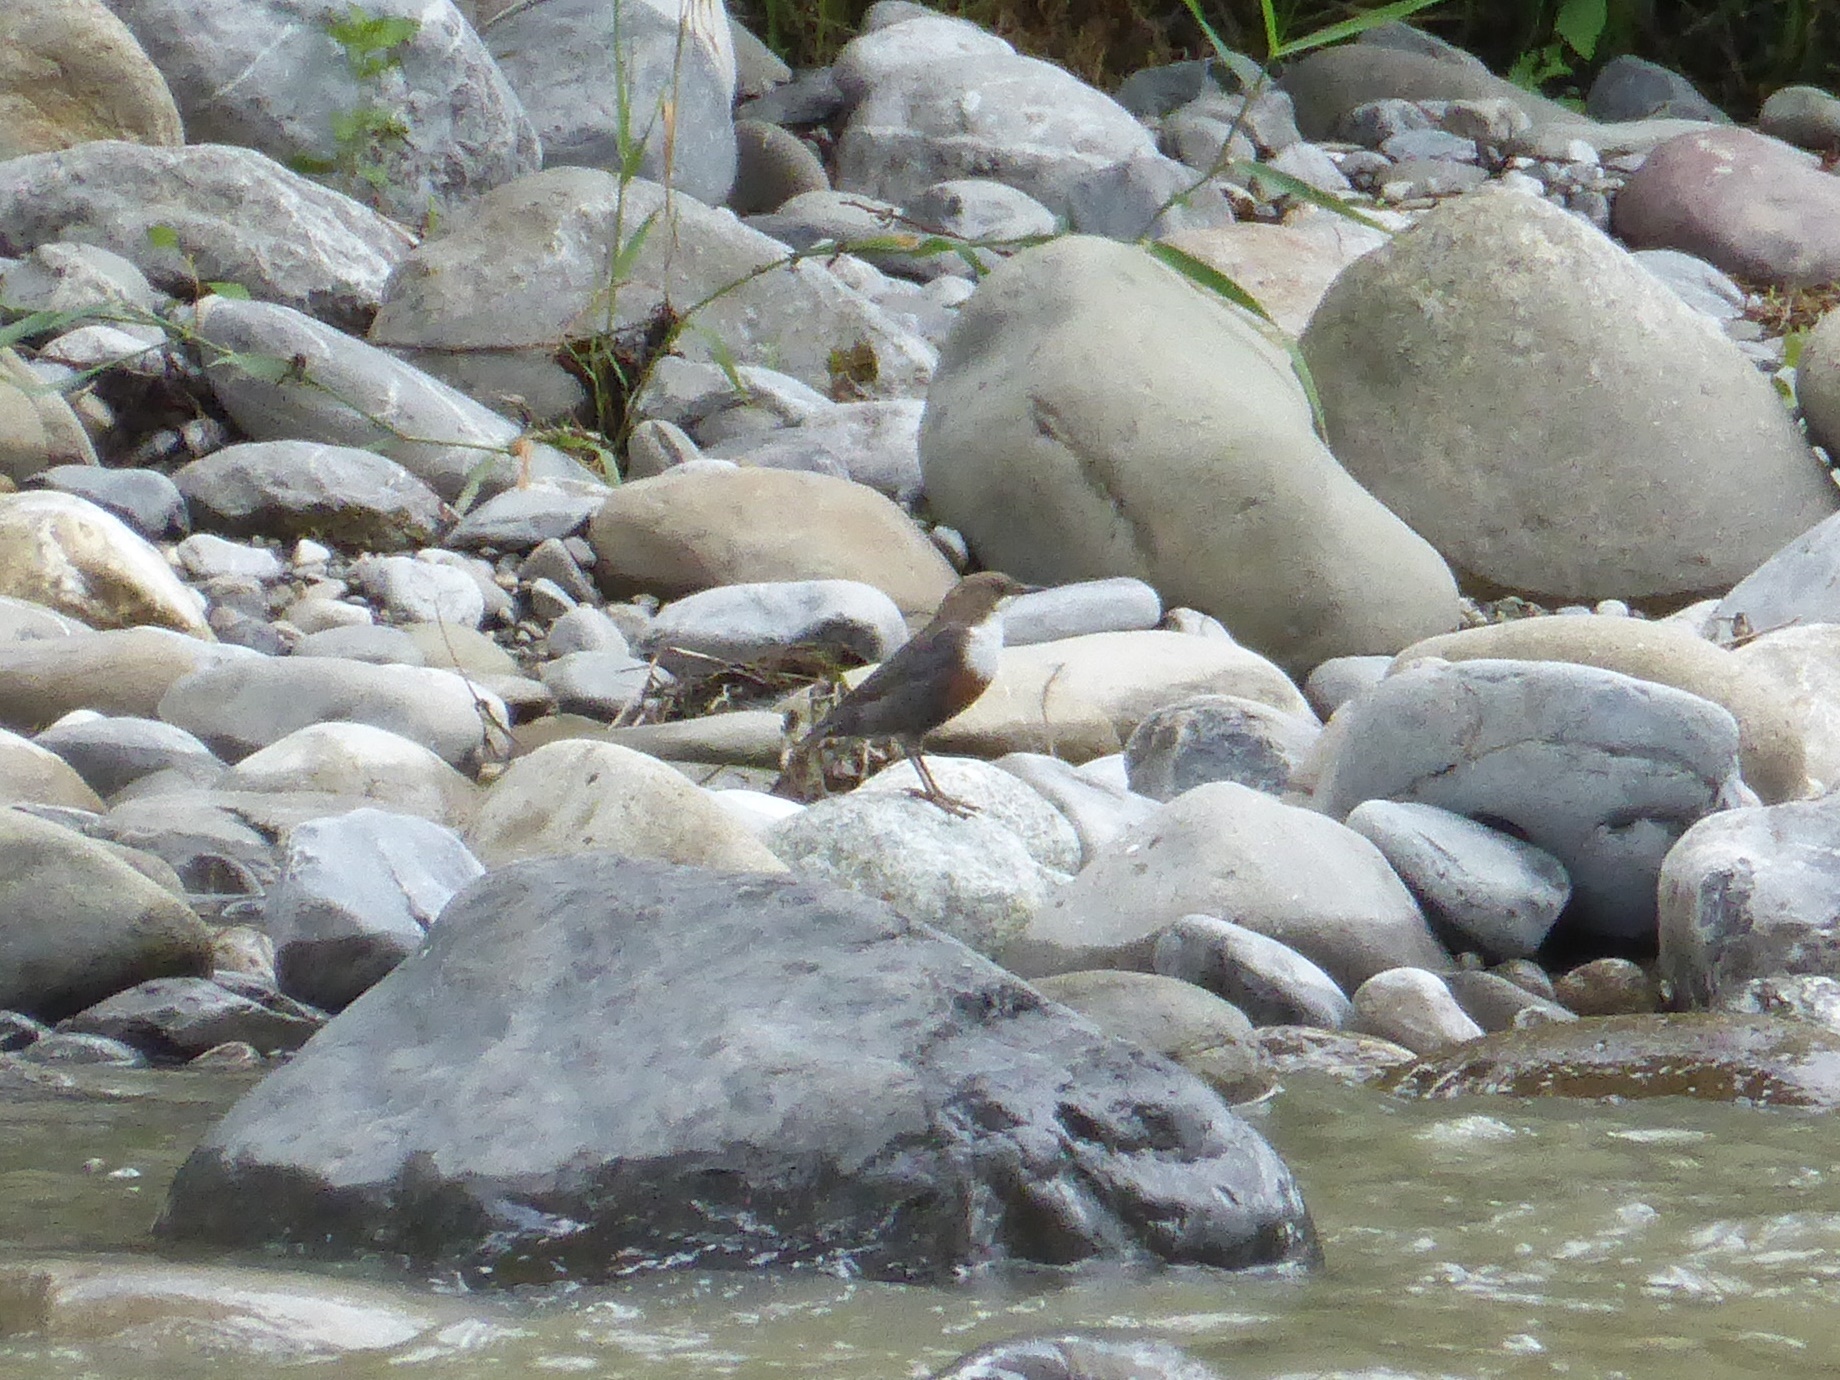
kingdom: Animalia
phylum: Chordata
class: Aves
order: Passeriformes
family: Cinclidae
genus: Cinclus
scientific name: Cinclus cinclus
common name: White-throated dipper
